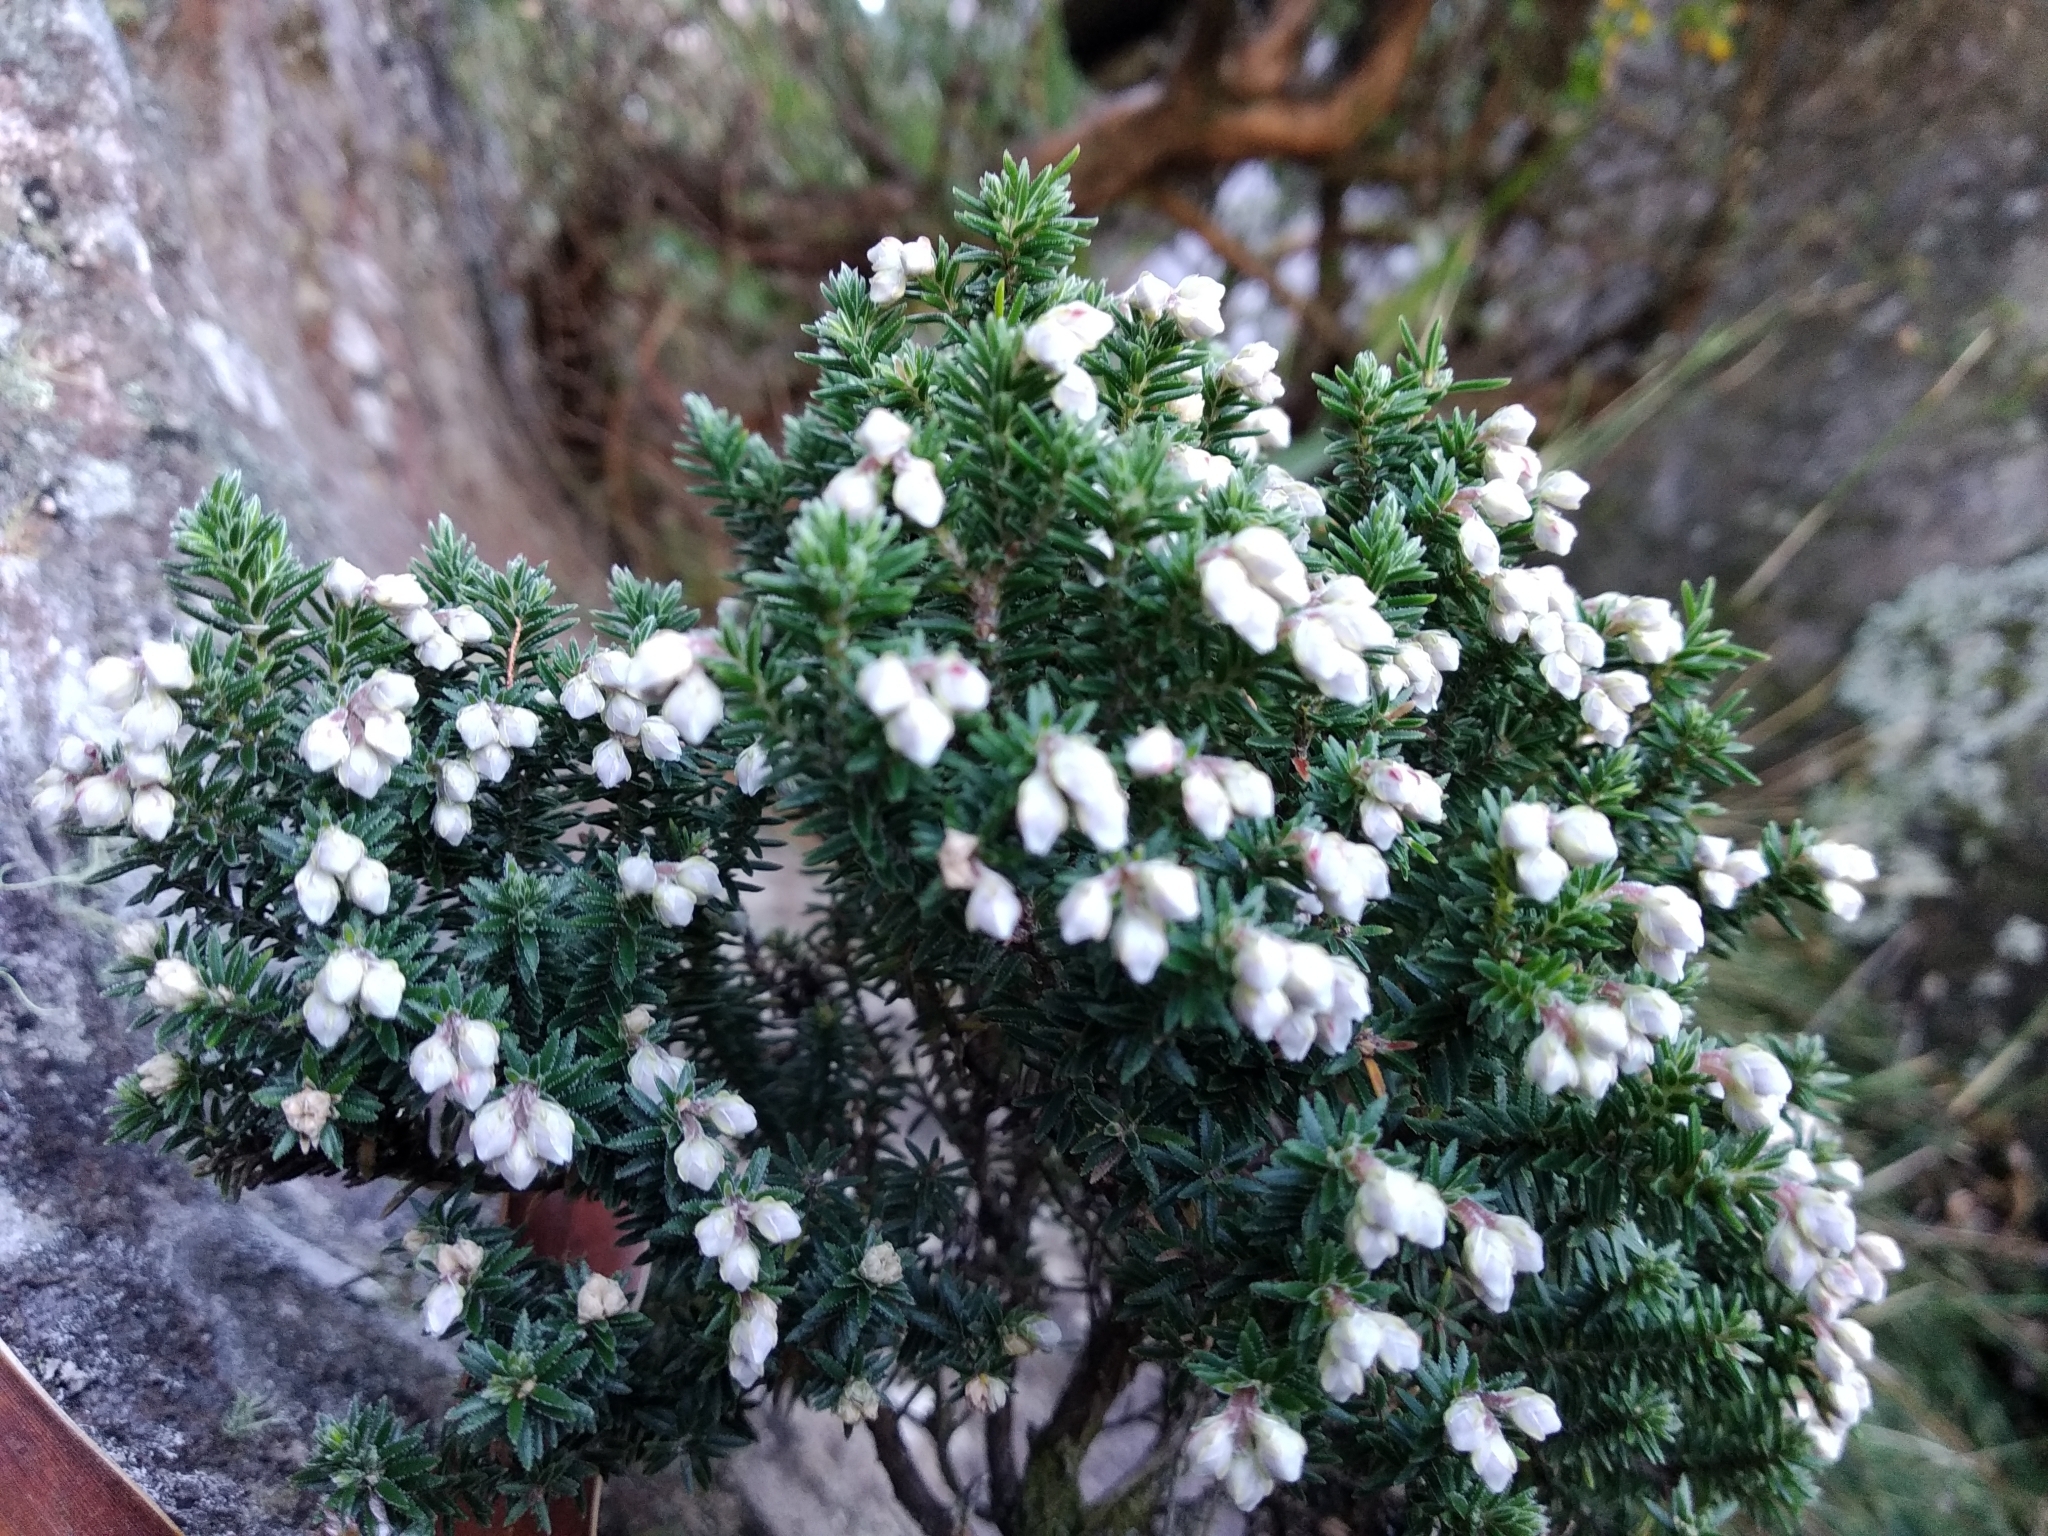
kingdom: Plantae
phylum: Tracheophyta
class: Magnoliopsida
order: Ericales
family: Ericaceae
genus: Erica
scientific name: Erica petiolaris
